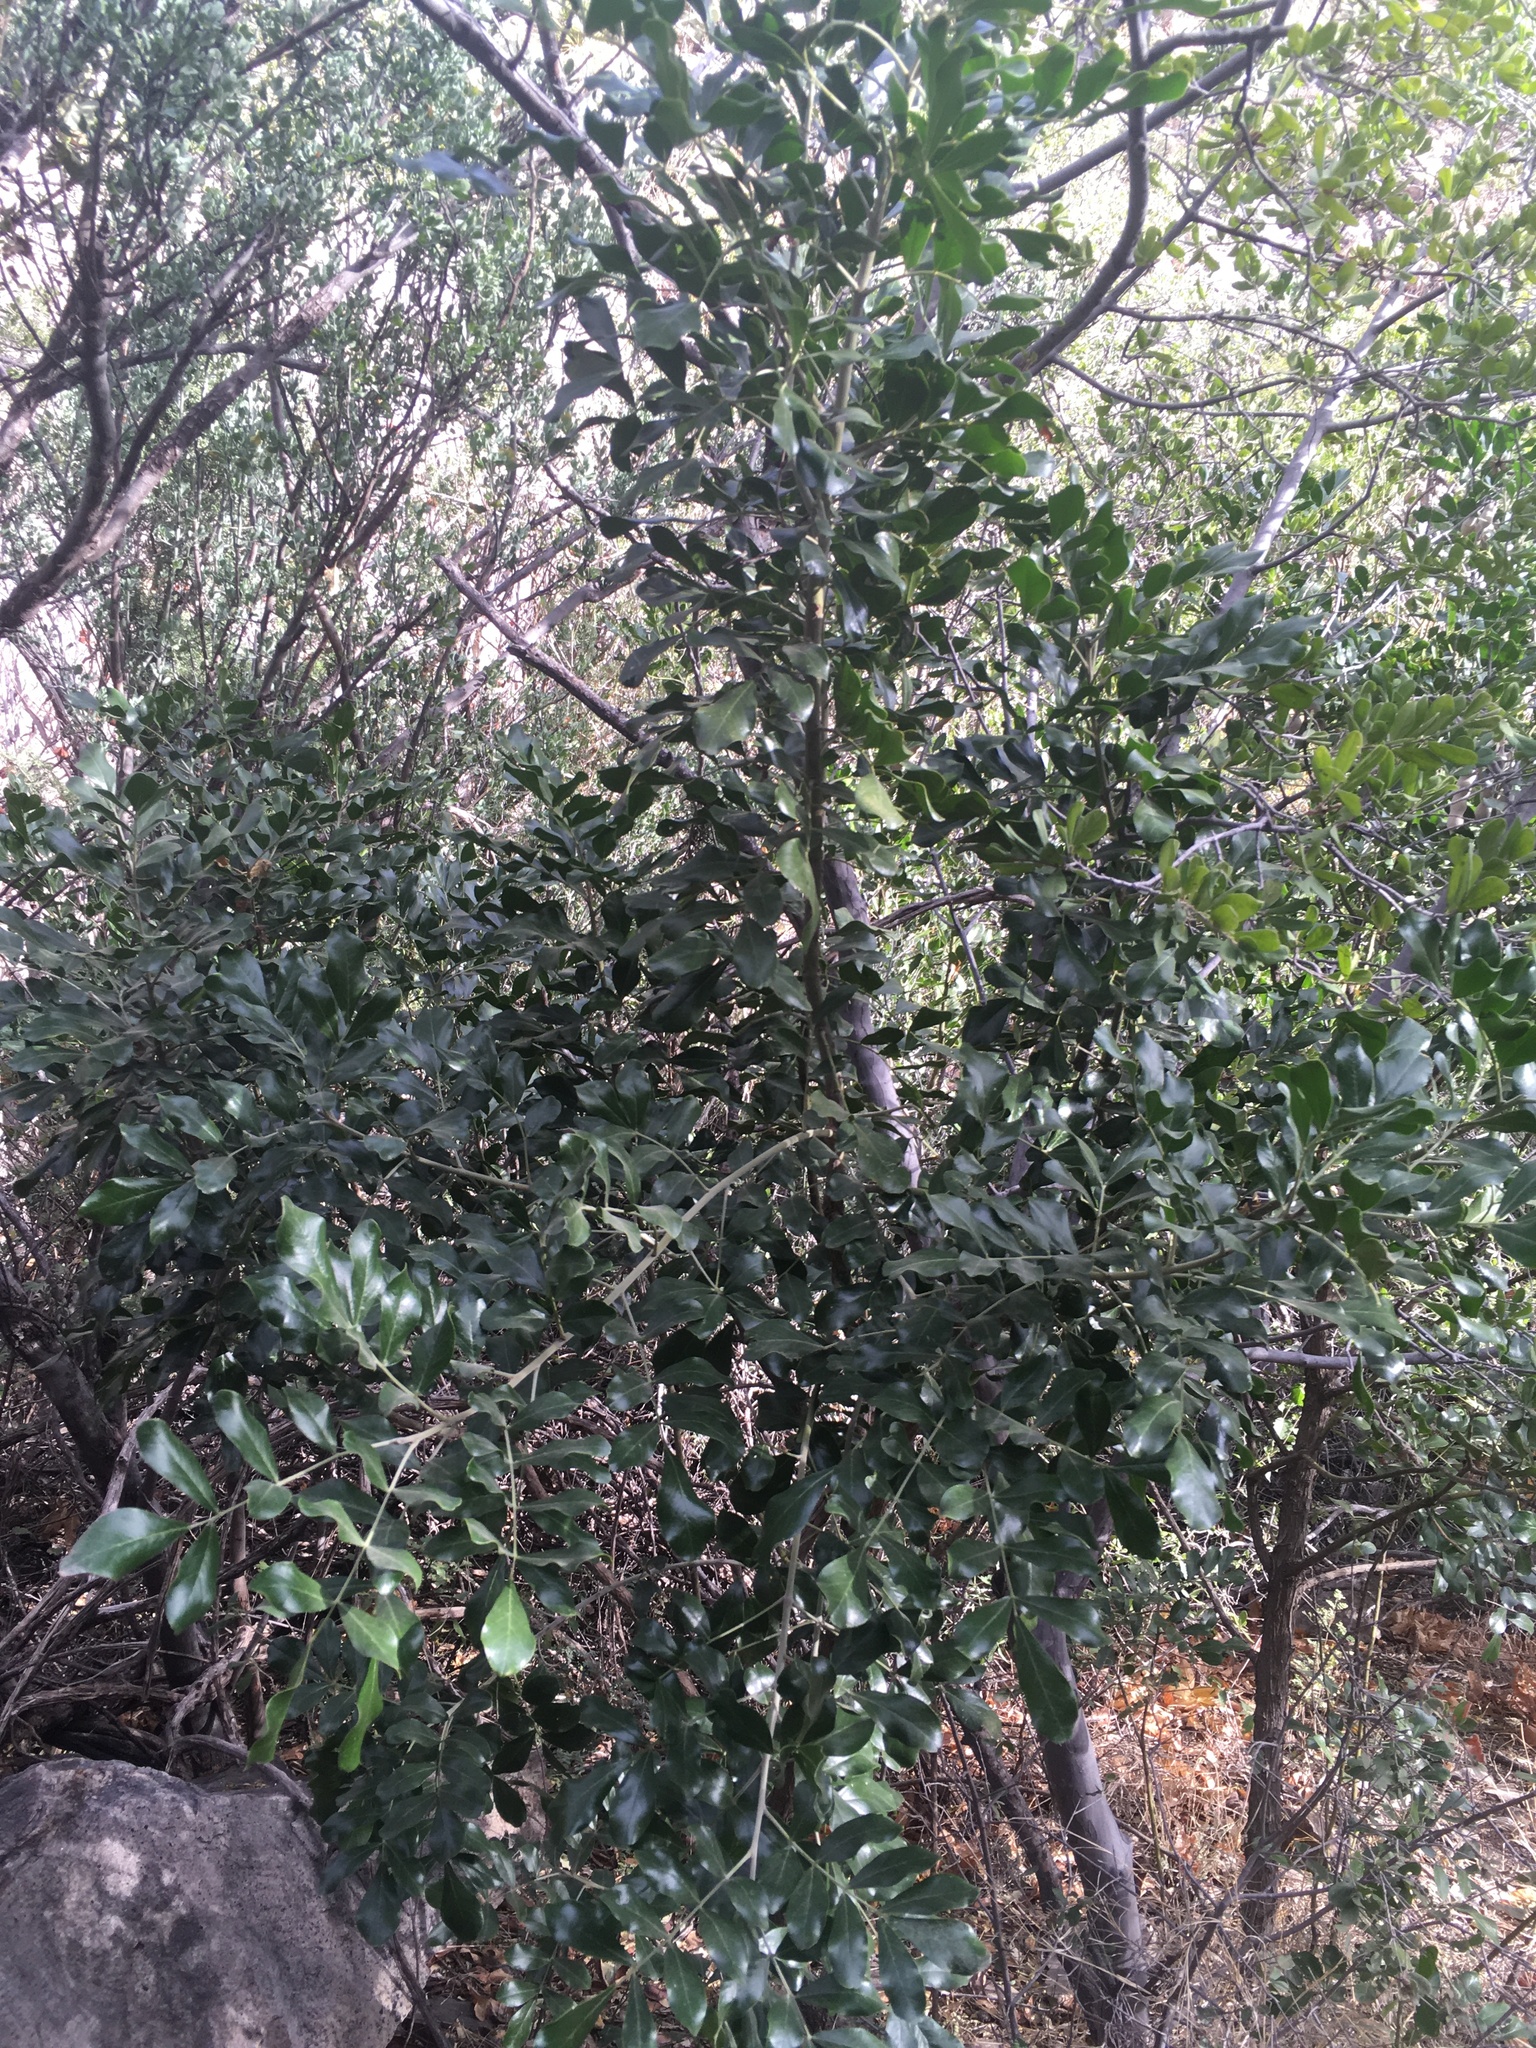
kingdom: Plantae
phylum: Tracheophyta
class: Magnoliopsida
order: Fabales
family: Fabaceae
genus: Dermatophyllum
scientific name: Dermatophyllum secundiflorum
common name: Texas-mountain-laurel
